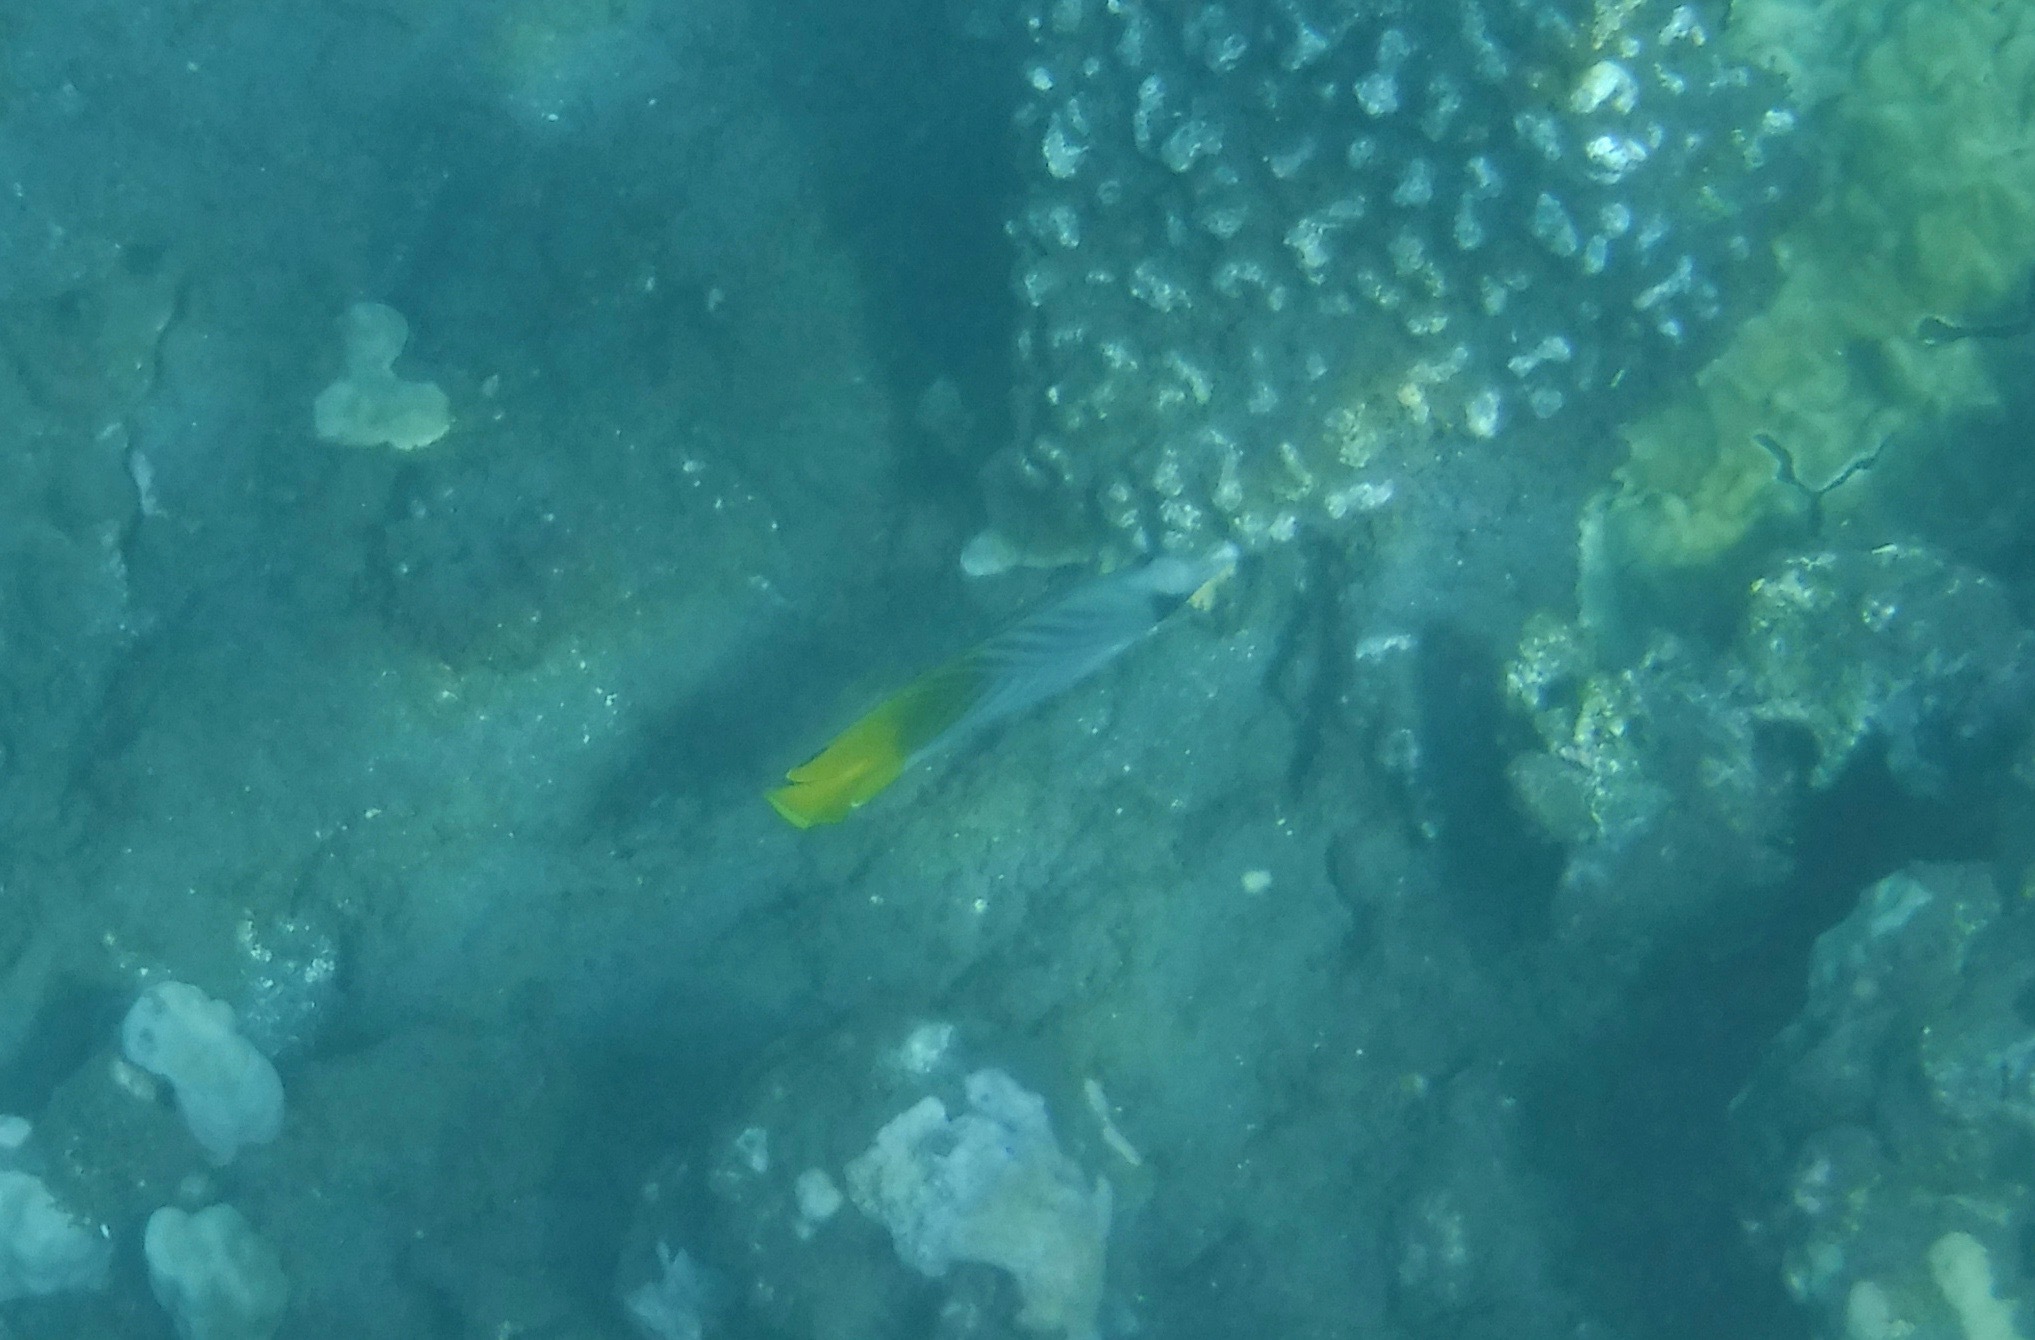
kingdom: Animalia
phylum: Chordata
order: Perciformes
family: Chaetodontidae
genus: Chaetodon
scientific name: Chaetodon auriga
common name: Threadfin butterflyfish
